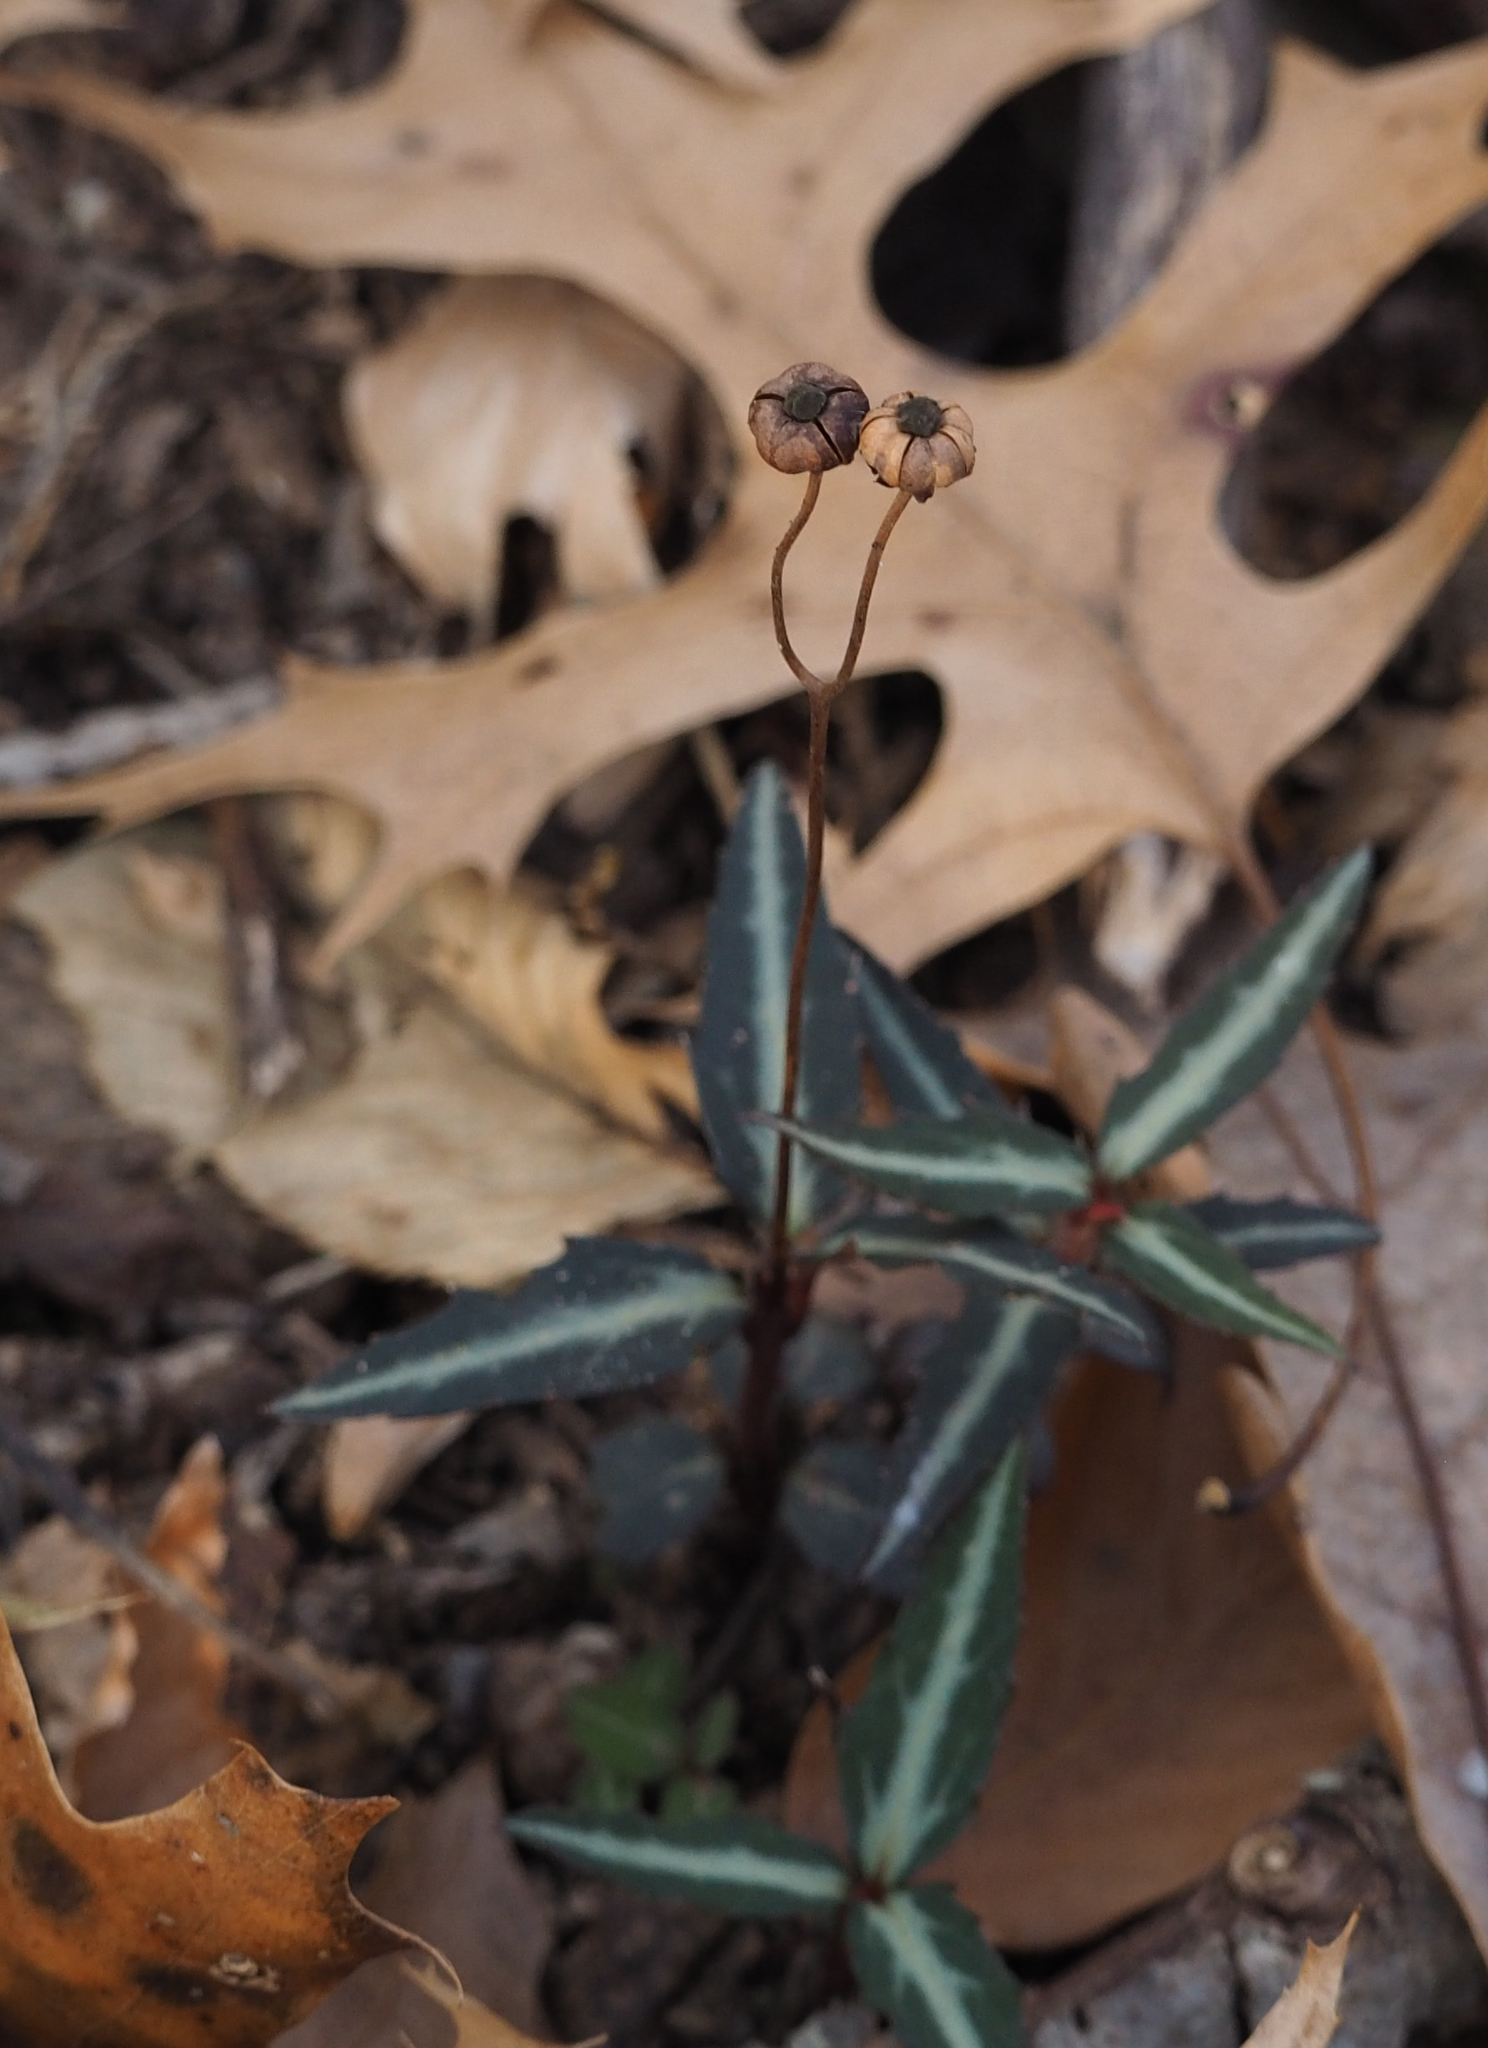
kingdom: Plantae
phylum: Tracheophyta
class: Magnoliopsida
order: Ericales
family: Ericaceae
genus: Chimaphila
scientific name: Chimaphila maculata
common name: Spotted pipsissewa
